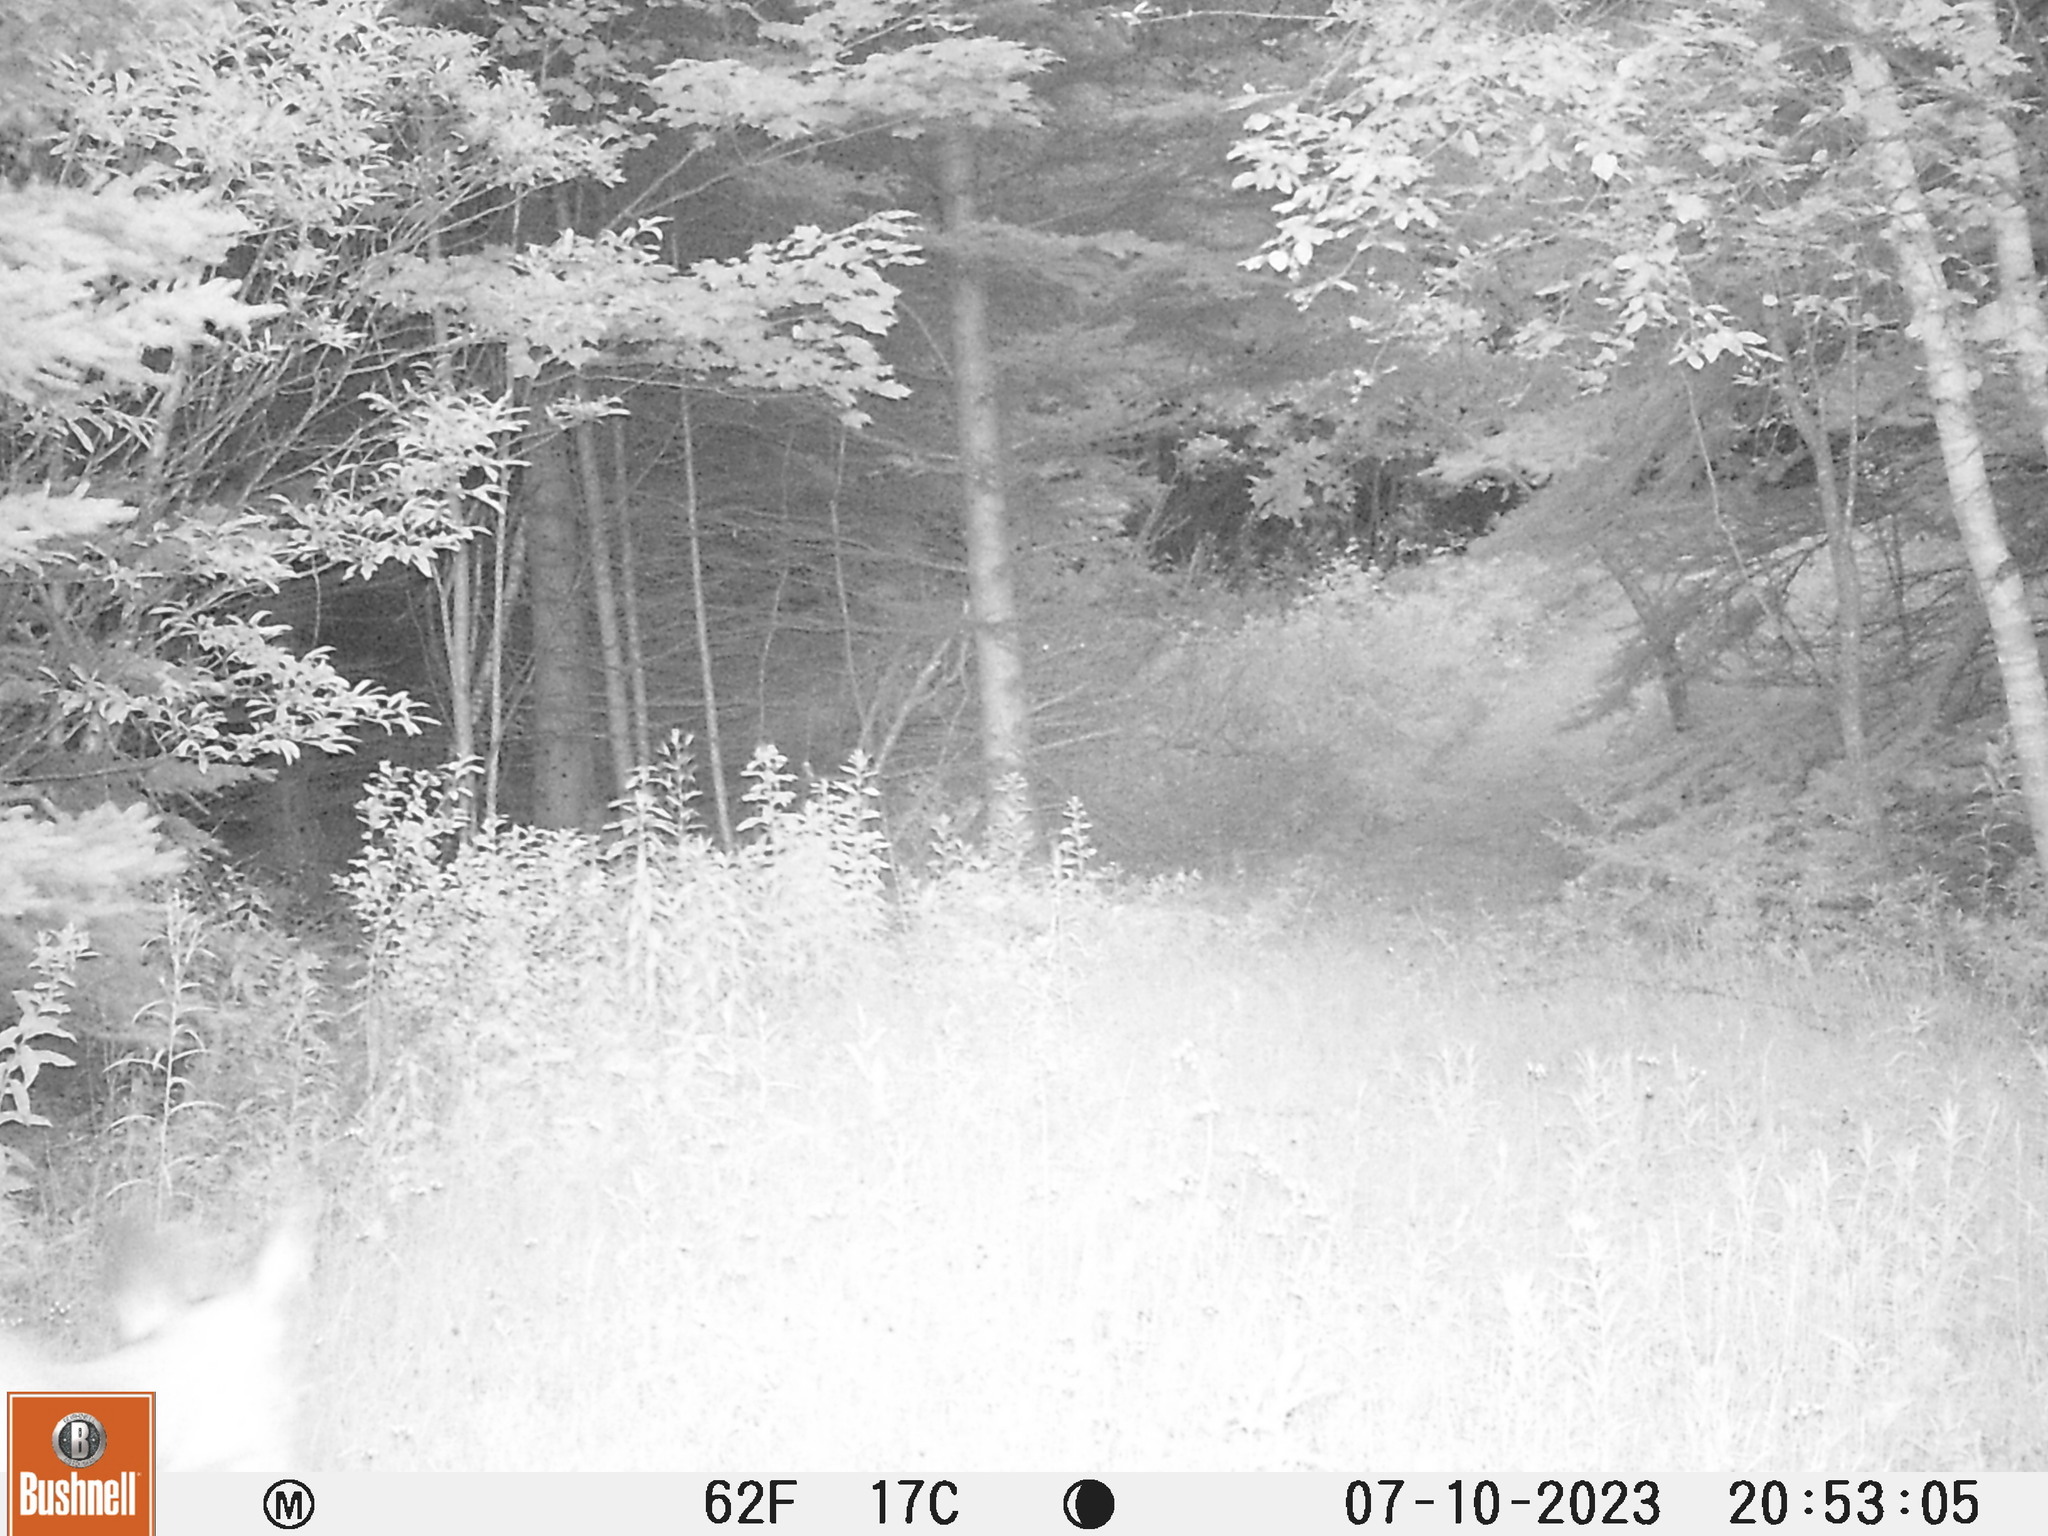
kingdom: Animalia
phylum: Chordata
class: Mammalia
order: Artiodactyla
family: Cervidae
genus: Odocoileus
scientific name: Odocoileus virginianus
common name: White-tailed deer
